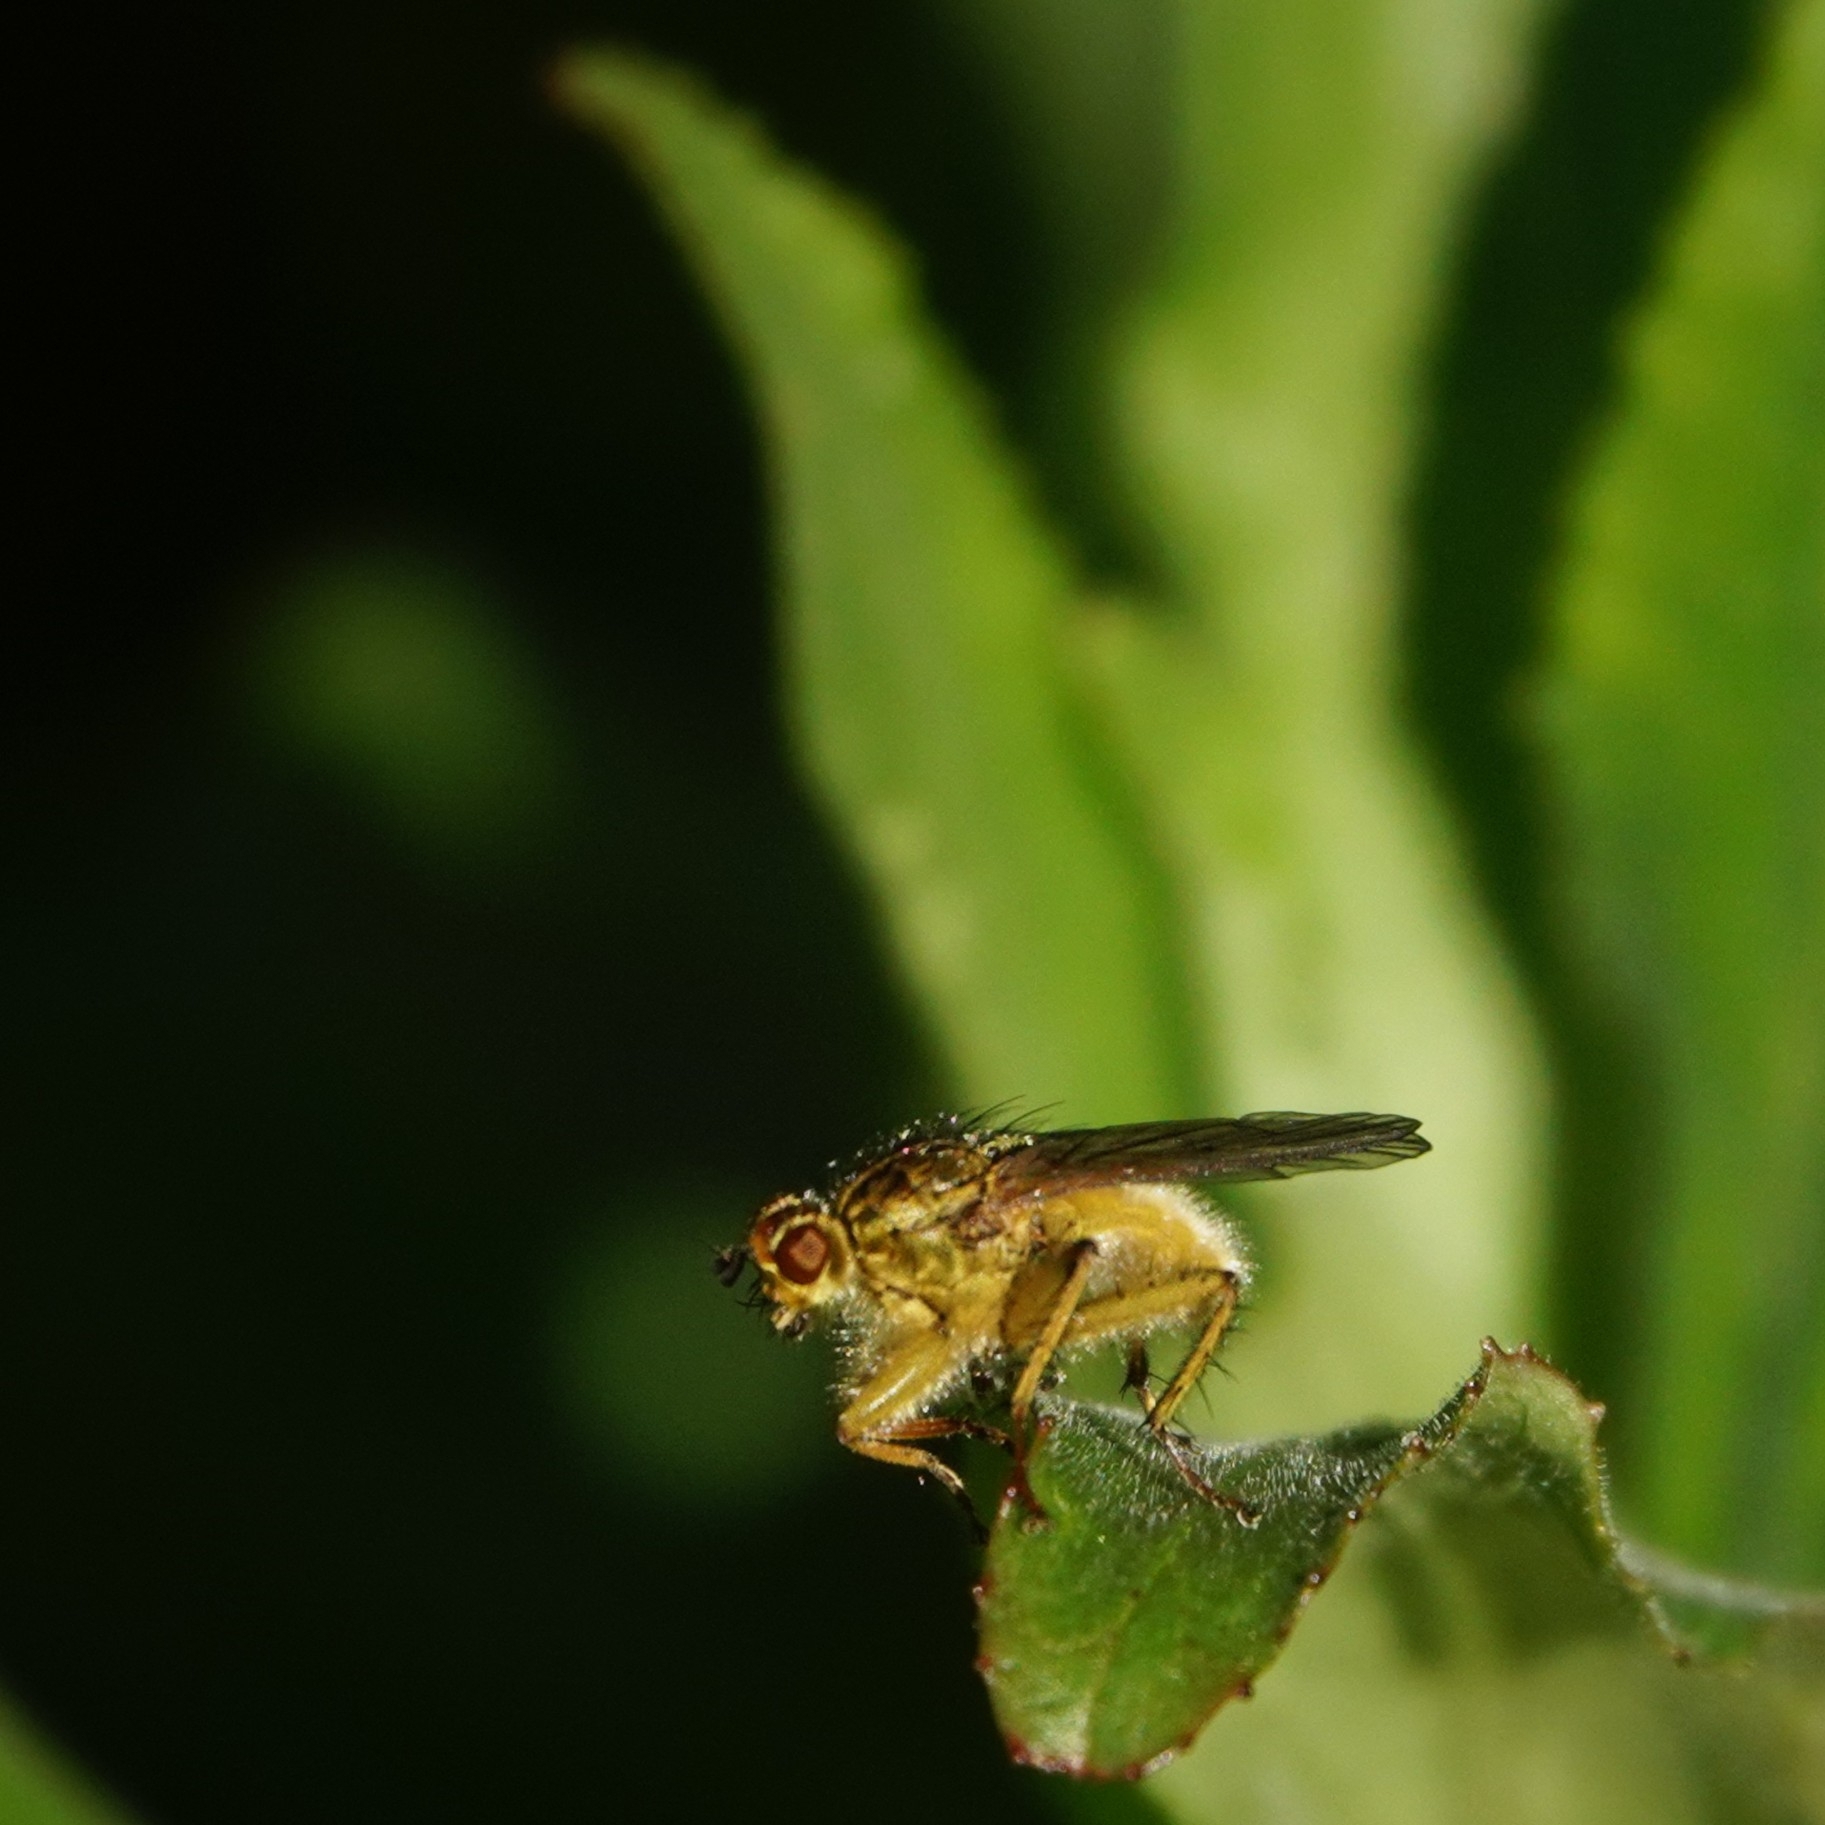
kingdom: Animalia
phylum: Arthropoda
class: Insecta
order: Diptera
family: Scathophagidae
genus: Scathophaga
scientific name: Scathophaga stercoraria
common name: Yellow dung fly
